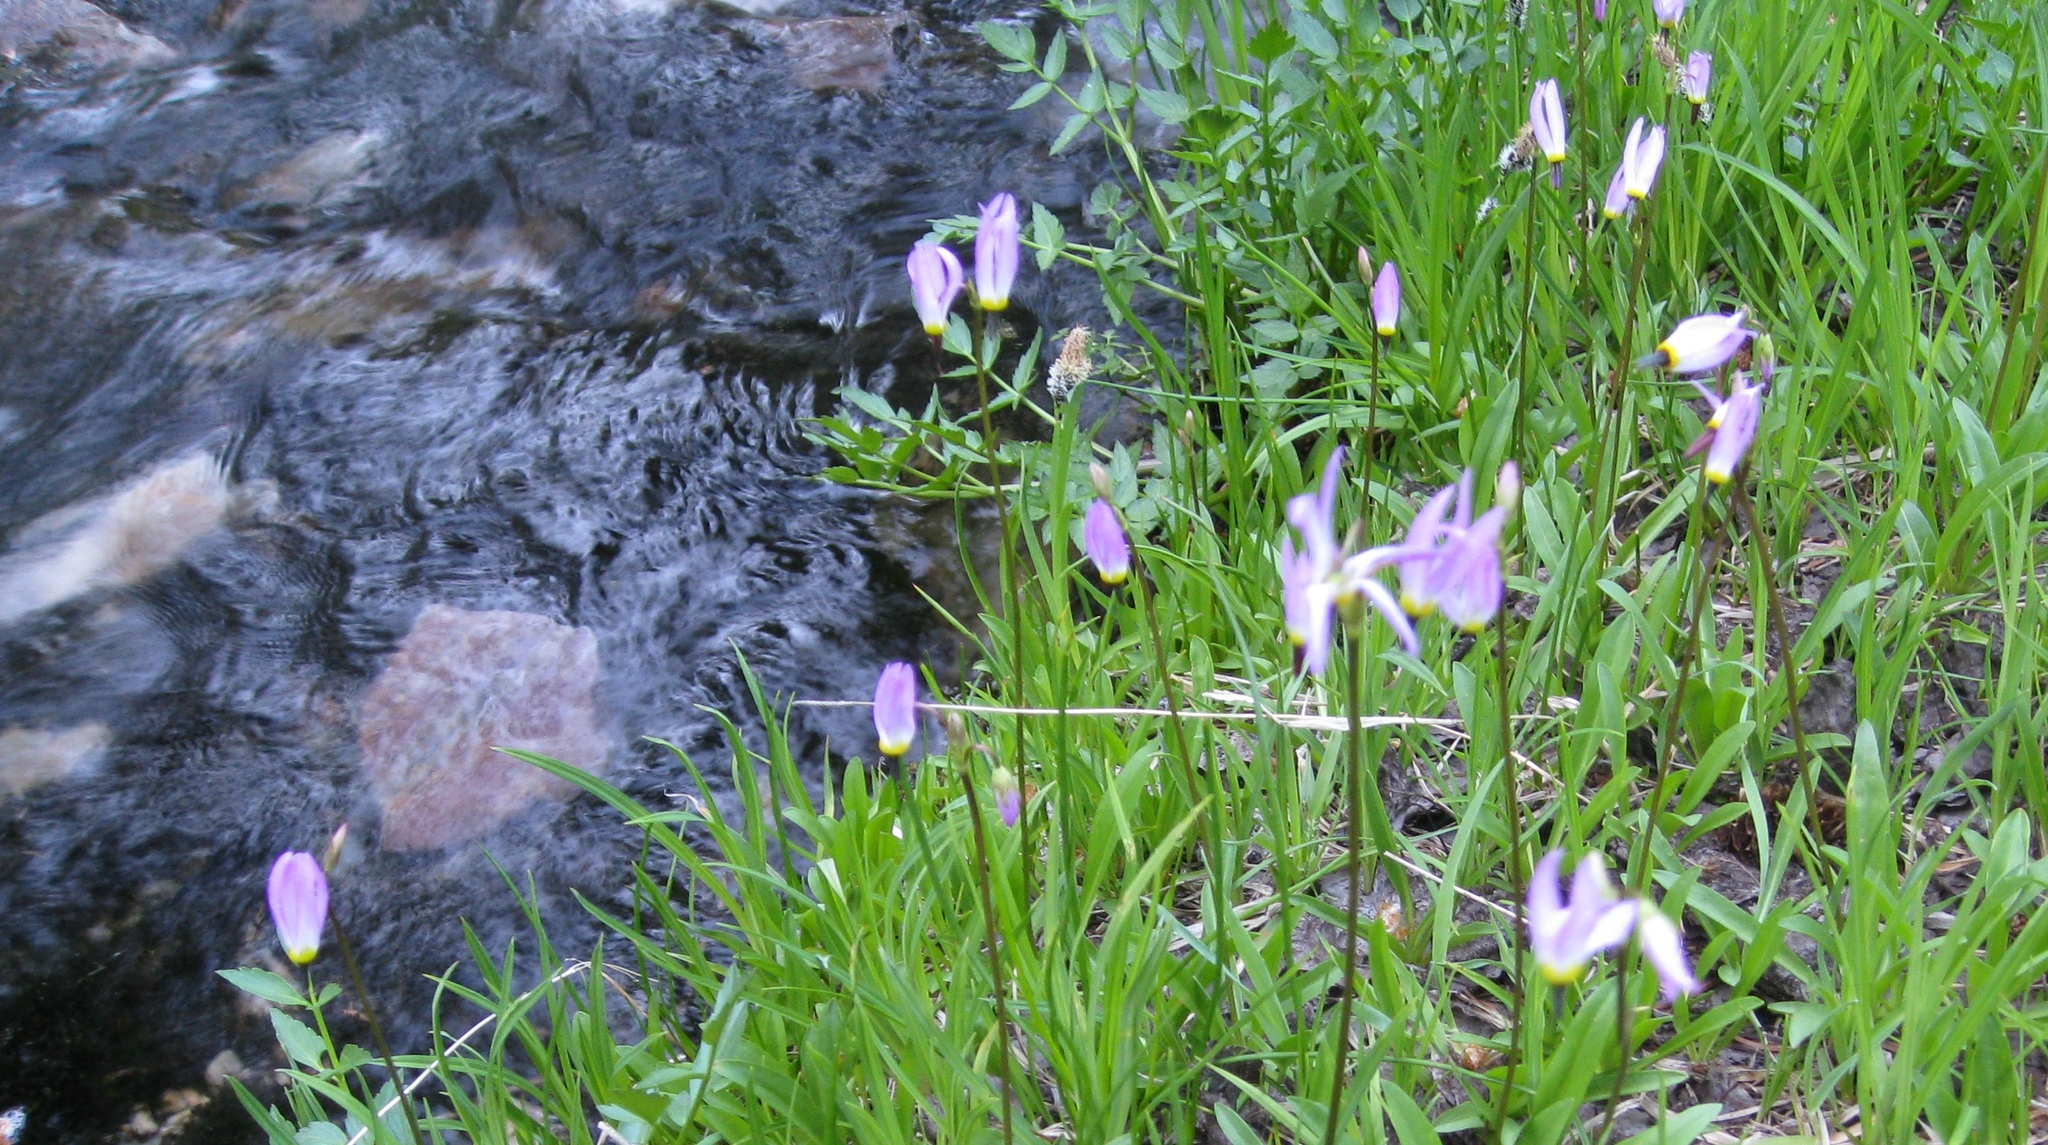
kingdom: Plantae
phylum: Tracheophyta
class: Magnoliopsida
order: Ericales
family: Primulaceae
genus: Dodecatheon
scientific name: Dodecatheon alpinum
